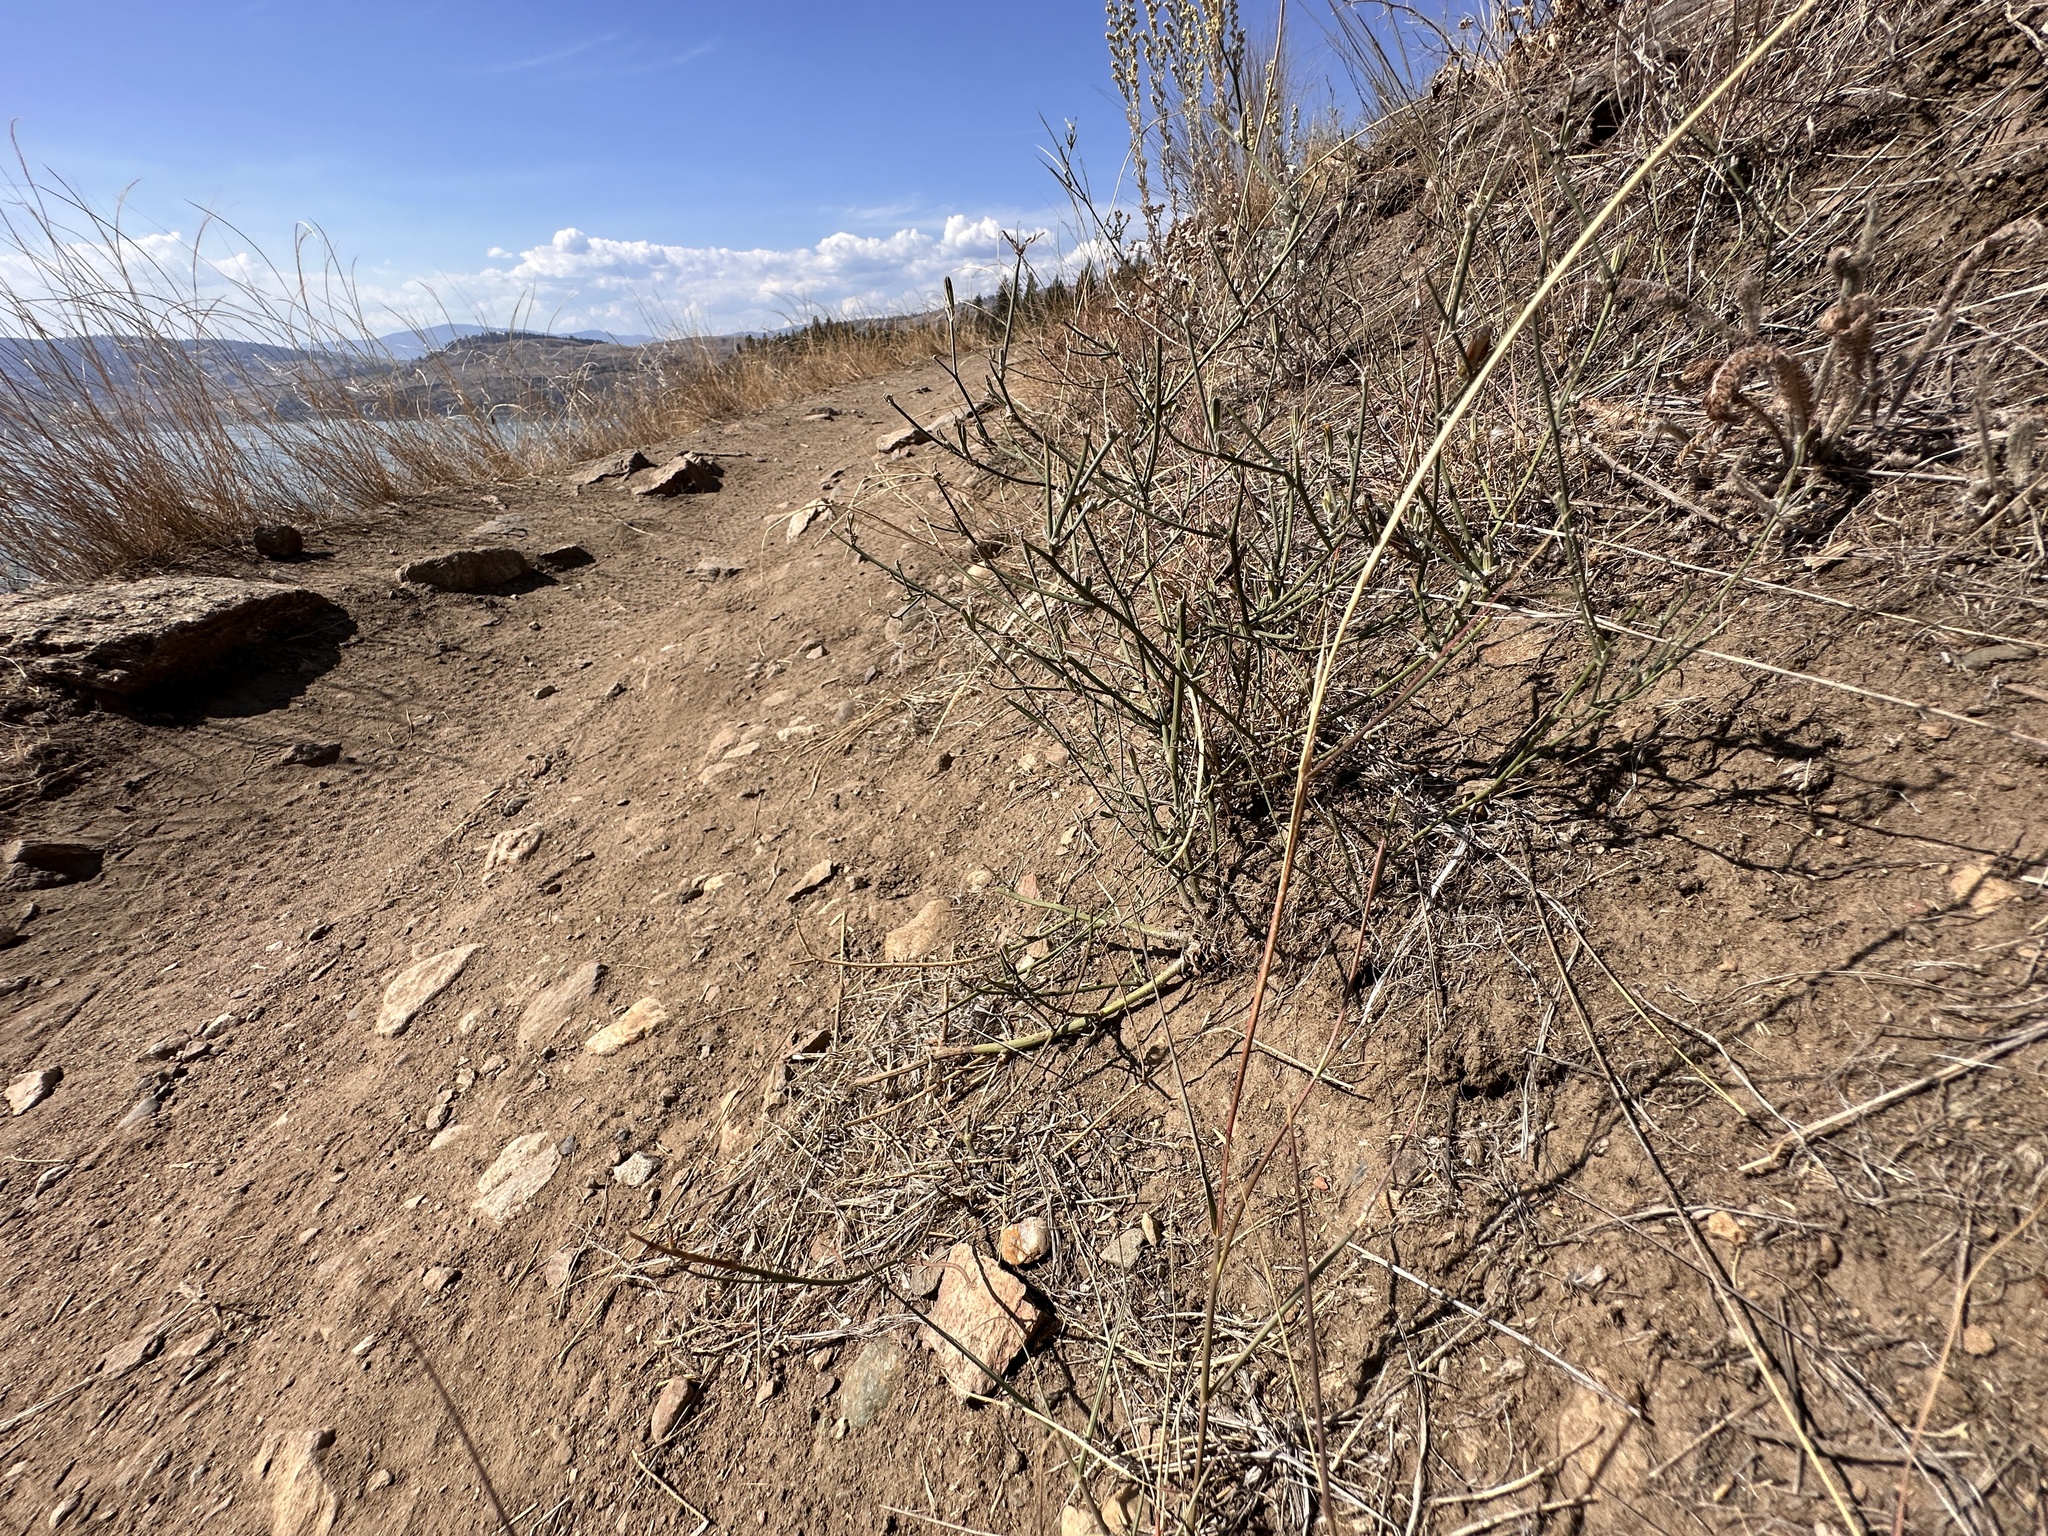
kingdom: Plantae
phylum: Tracheophyta
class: Magnoliopsida
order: Asterales
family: Asteraceae
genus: Chondrilla
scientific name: Chondrilla juncea
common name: Skeleton weed
